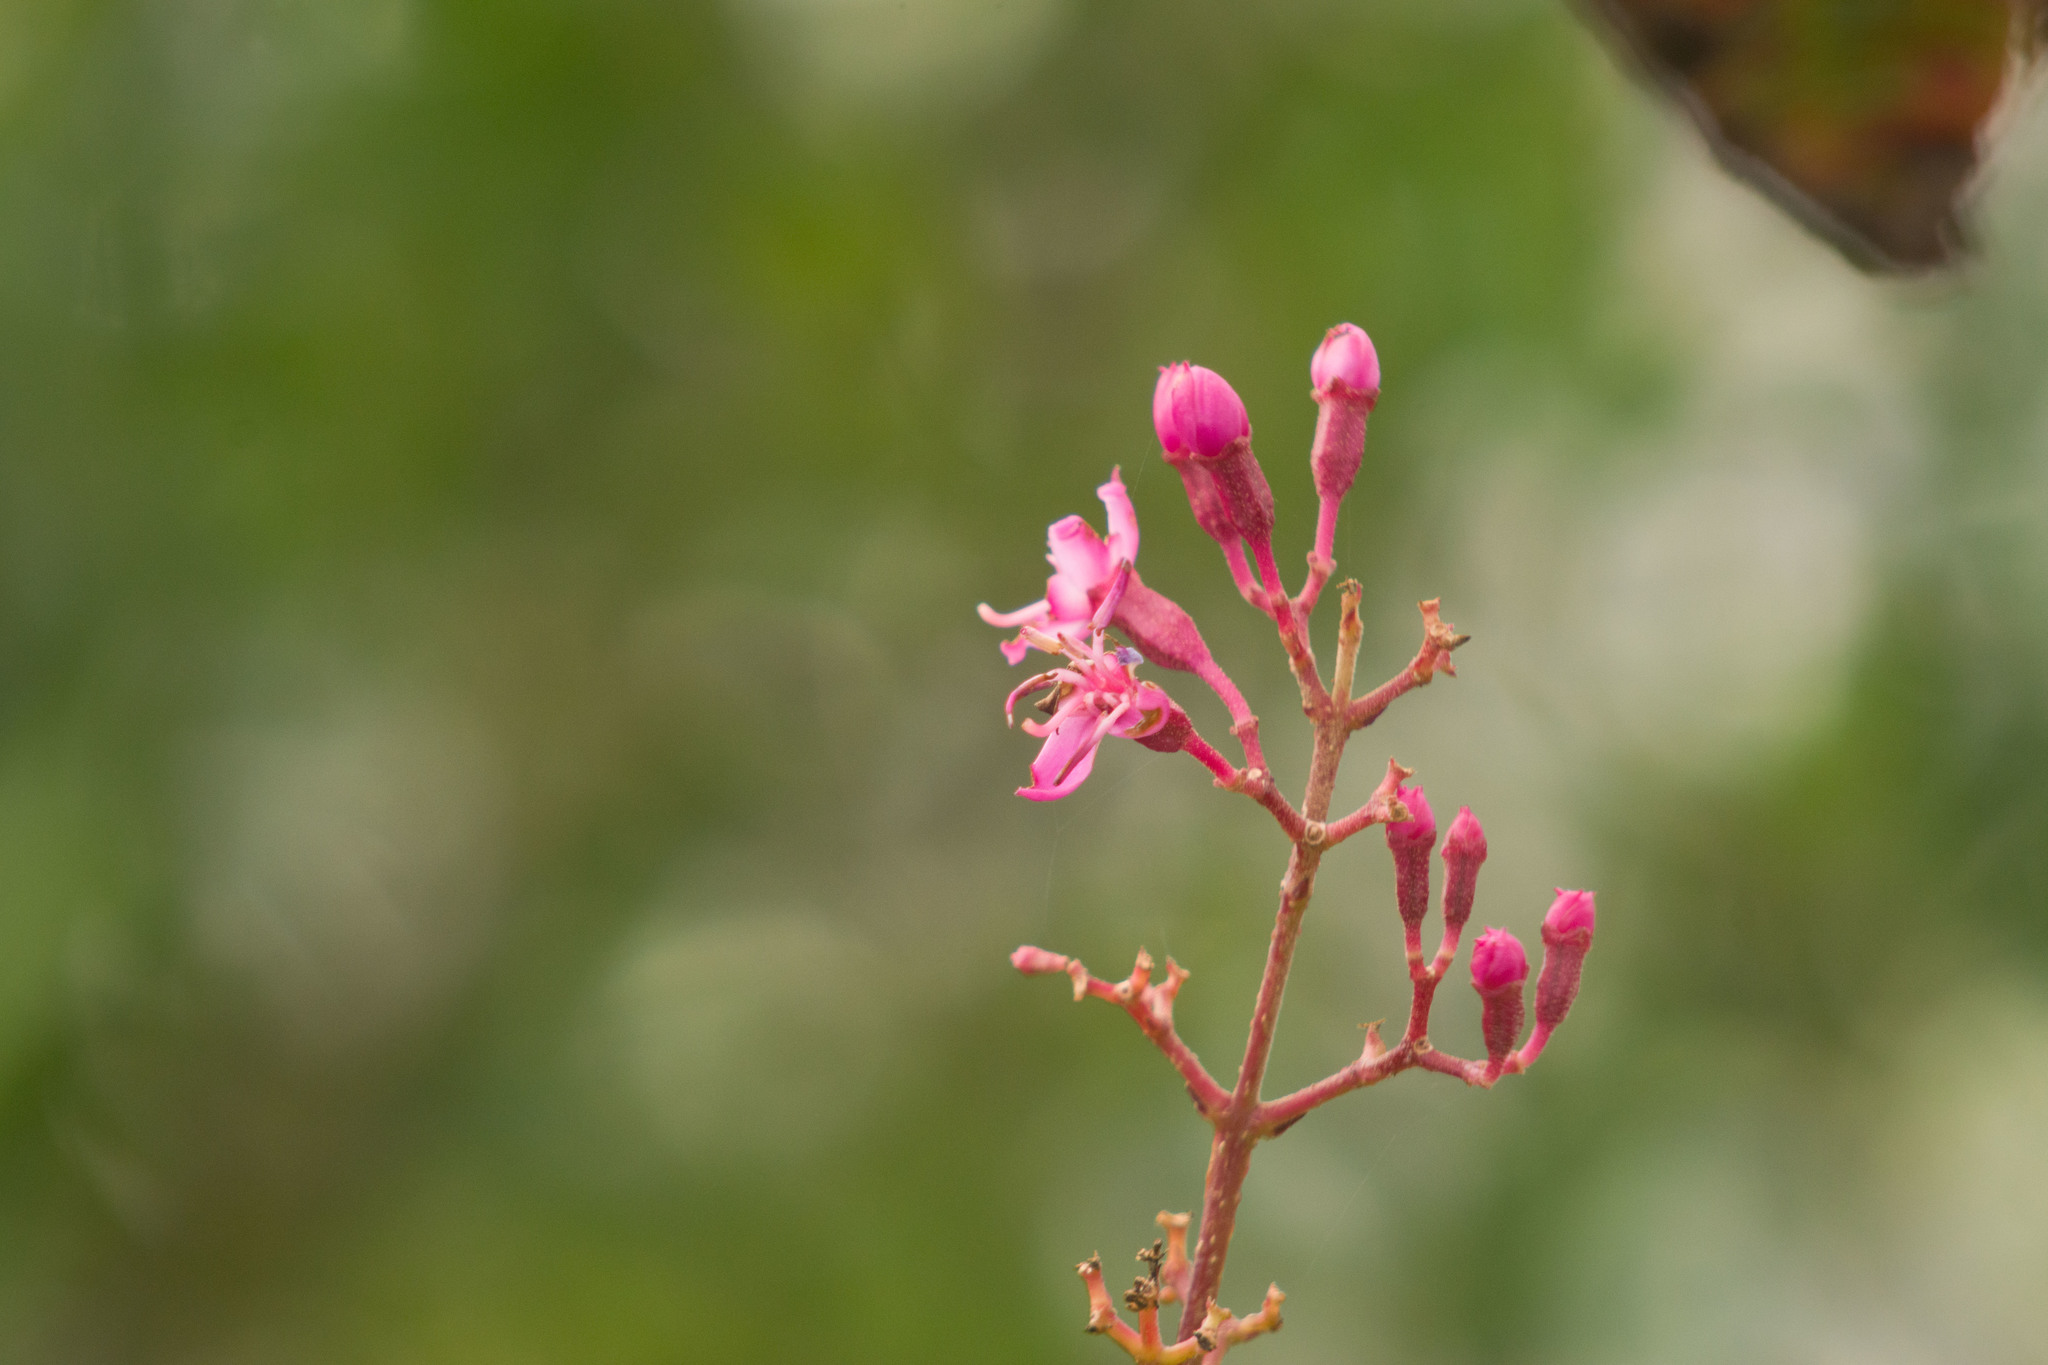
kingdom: Plantae
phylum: Tracheophyta
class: Magnoliopsida
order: Myrtales
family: Melastomataceae
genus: Oxyspora
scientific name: Oxyspora paniculata
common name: Bristletips
